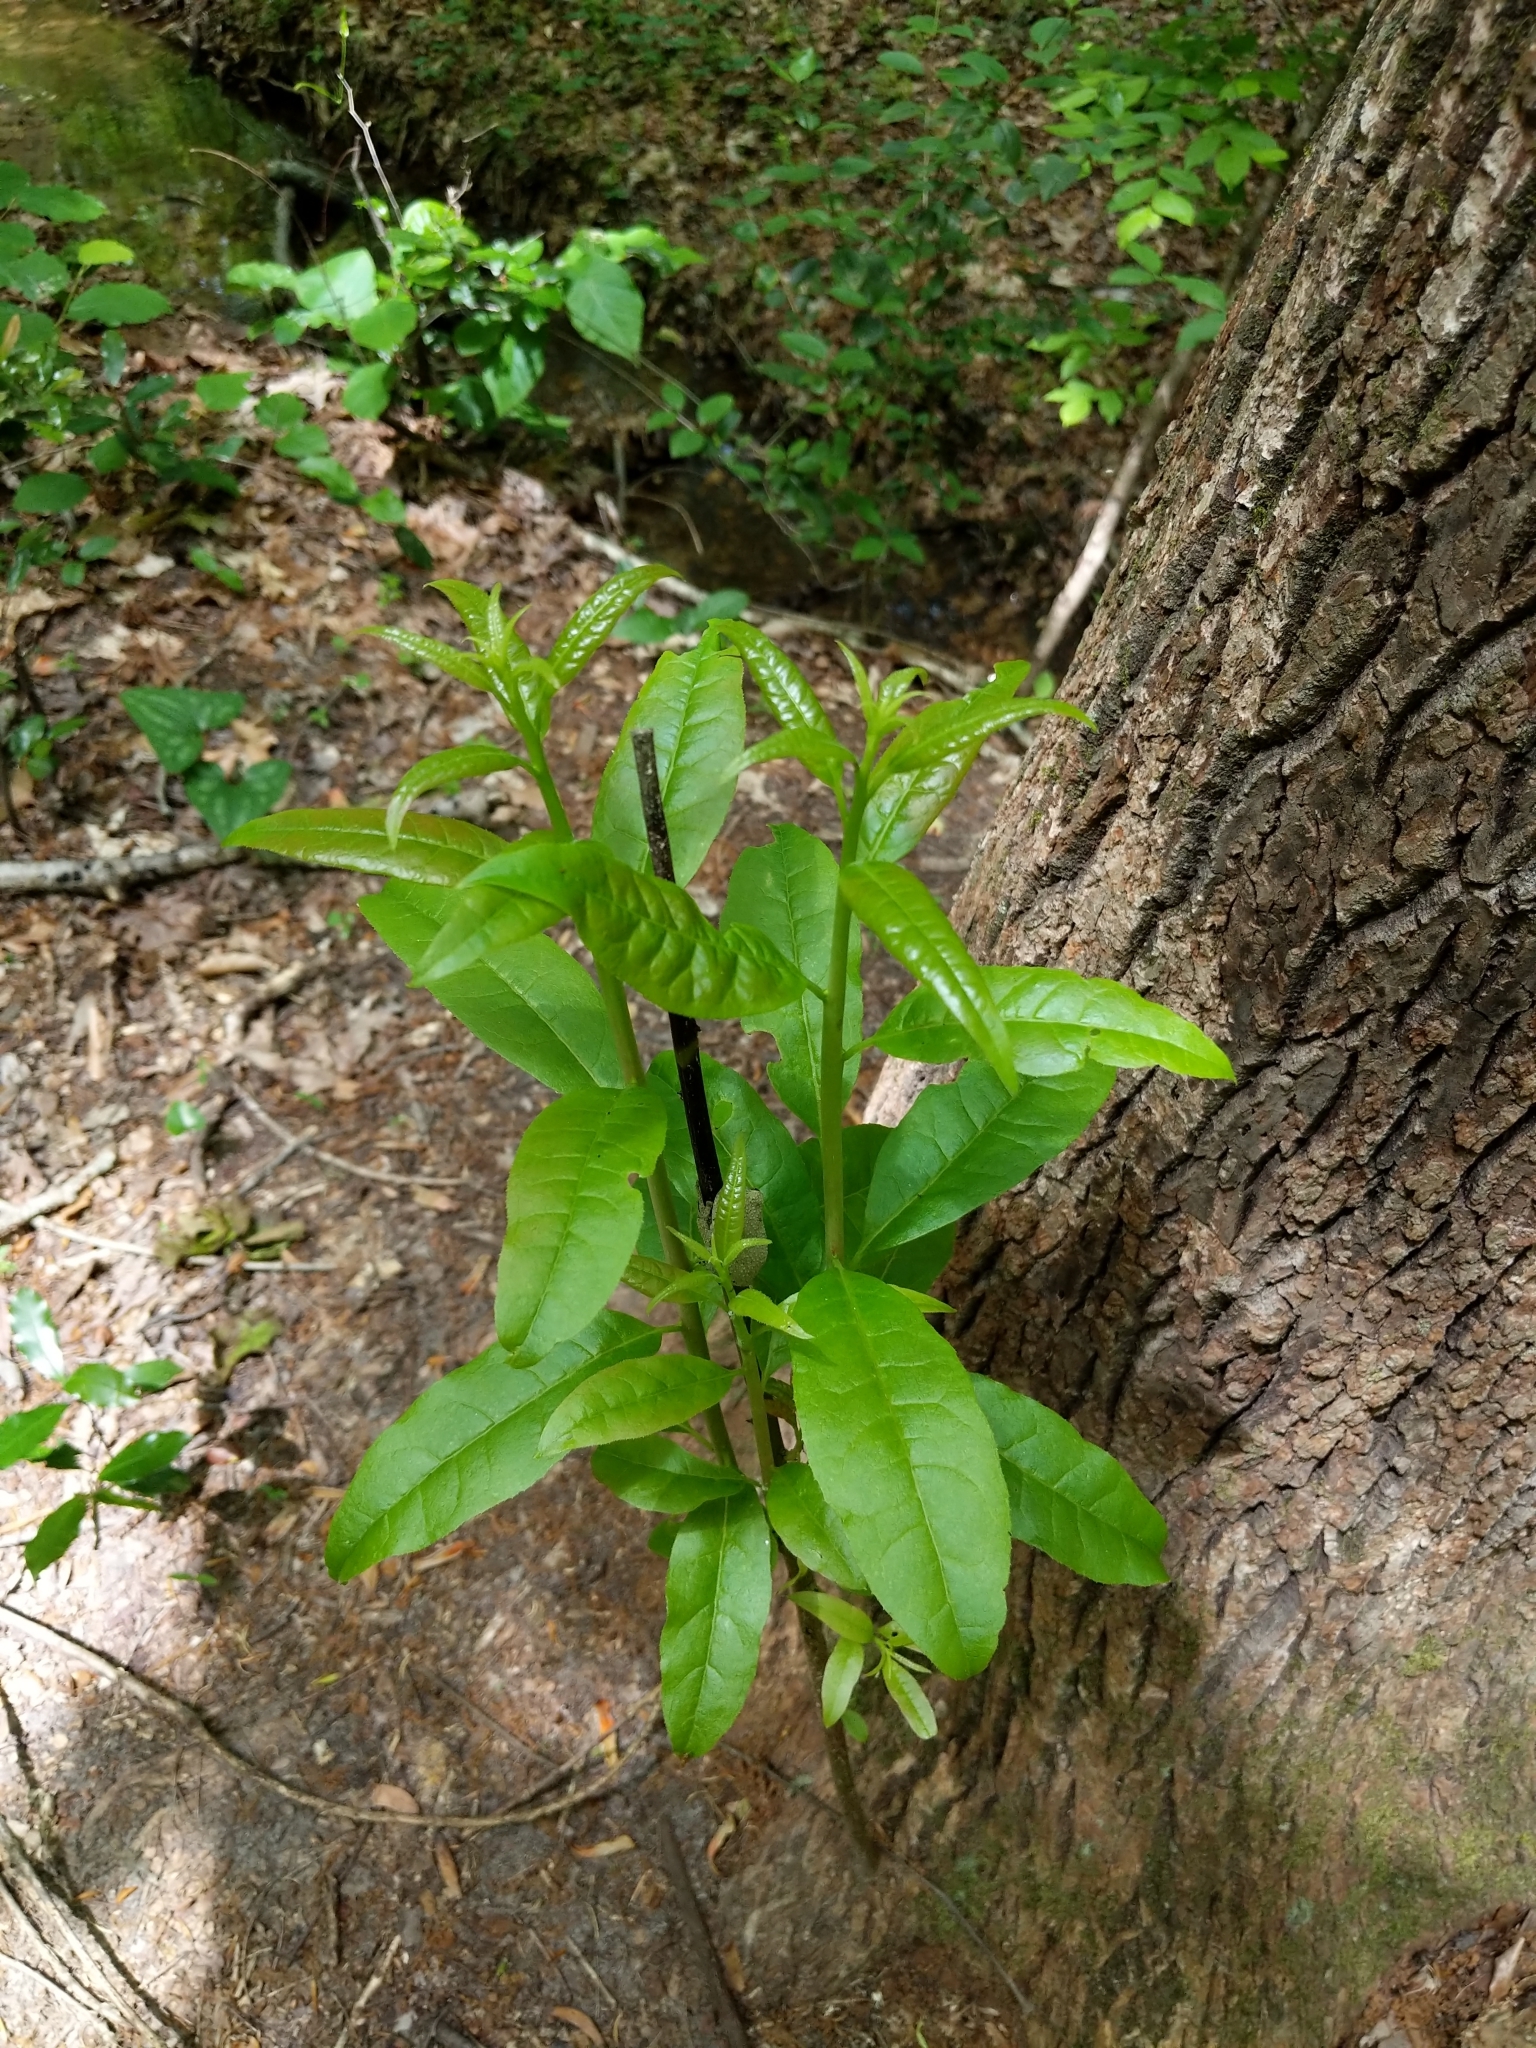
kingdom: Plantae
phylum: Tracheophyta
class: Magnoliopsida
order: Ericales
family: Ericaceae
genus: Oxydendrum
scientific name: Oxydendrum arboreum
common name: Sourwood
